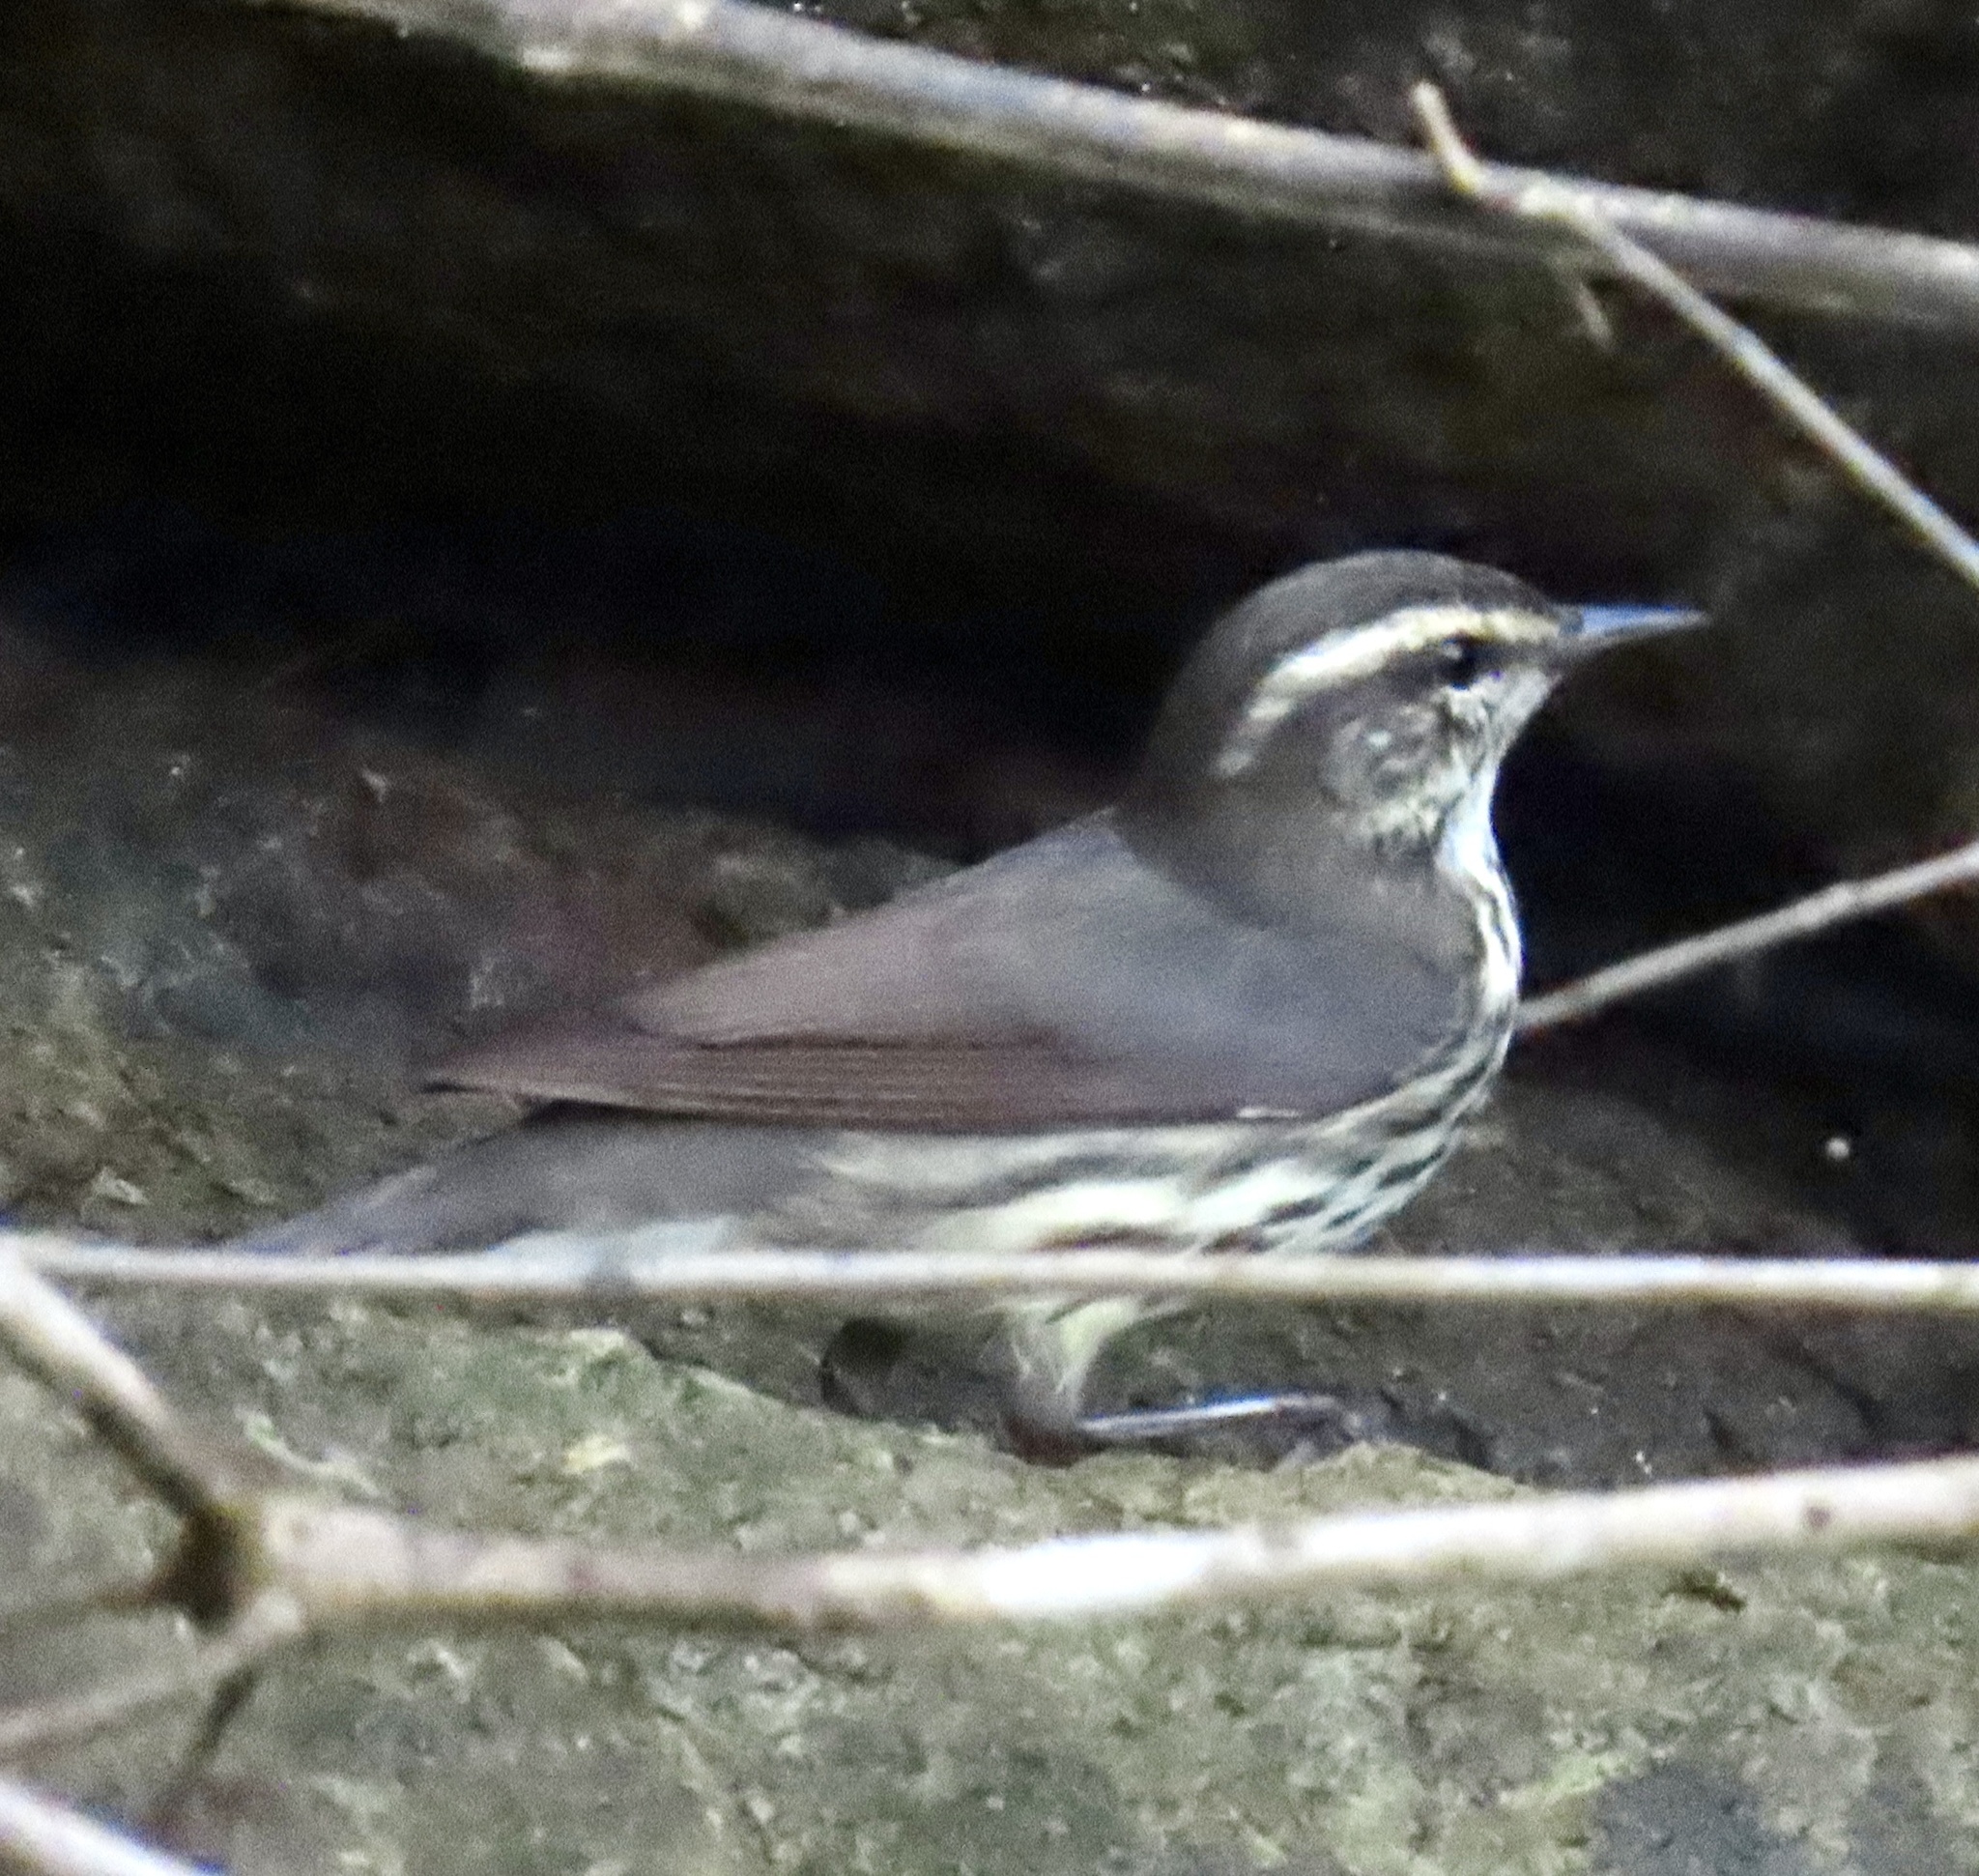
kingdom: Animalia
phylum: Chordata
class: Aves
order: Passeriformes
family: Parulidae
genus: Parkesia
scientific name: Parkesia noveboracensis
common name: Northern waterthrush
